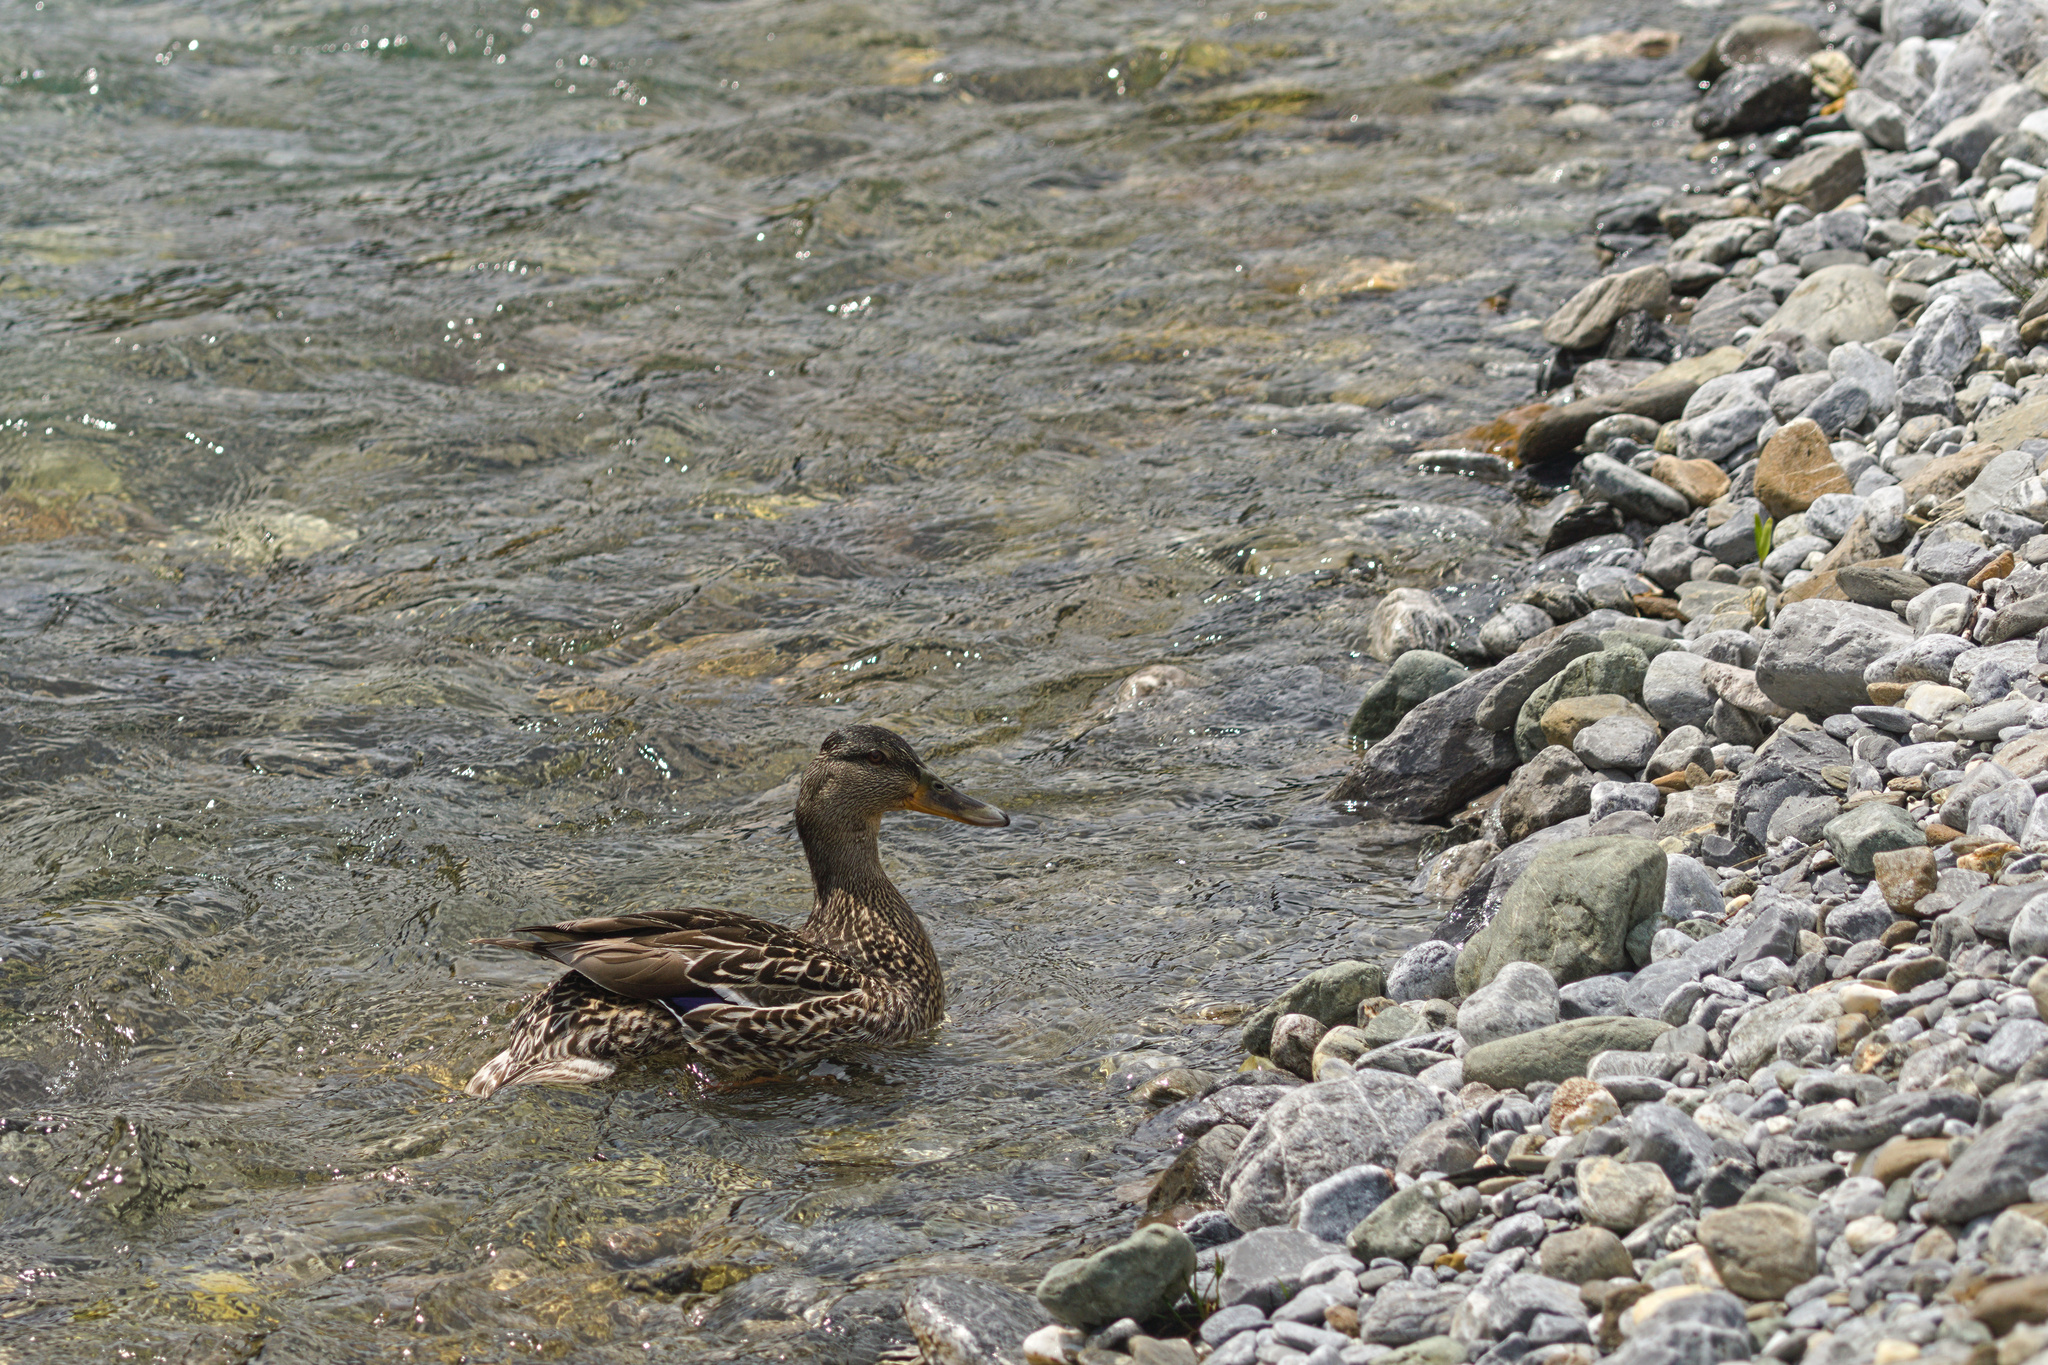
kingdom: Animalia
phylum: Chordata
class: Aves
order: Anseriformes
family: Anatidae
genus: Anas
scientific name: Anas platyrhynchos
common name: Mallard
